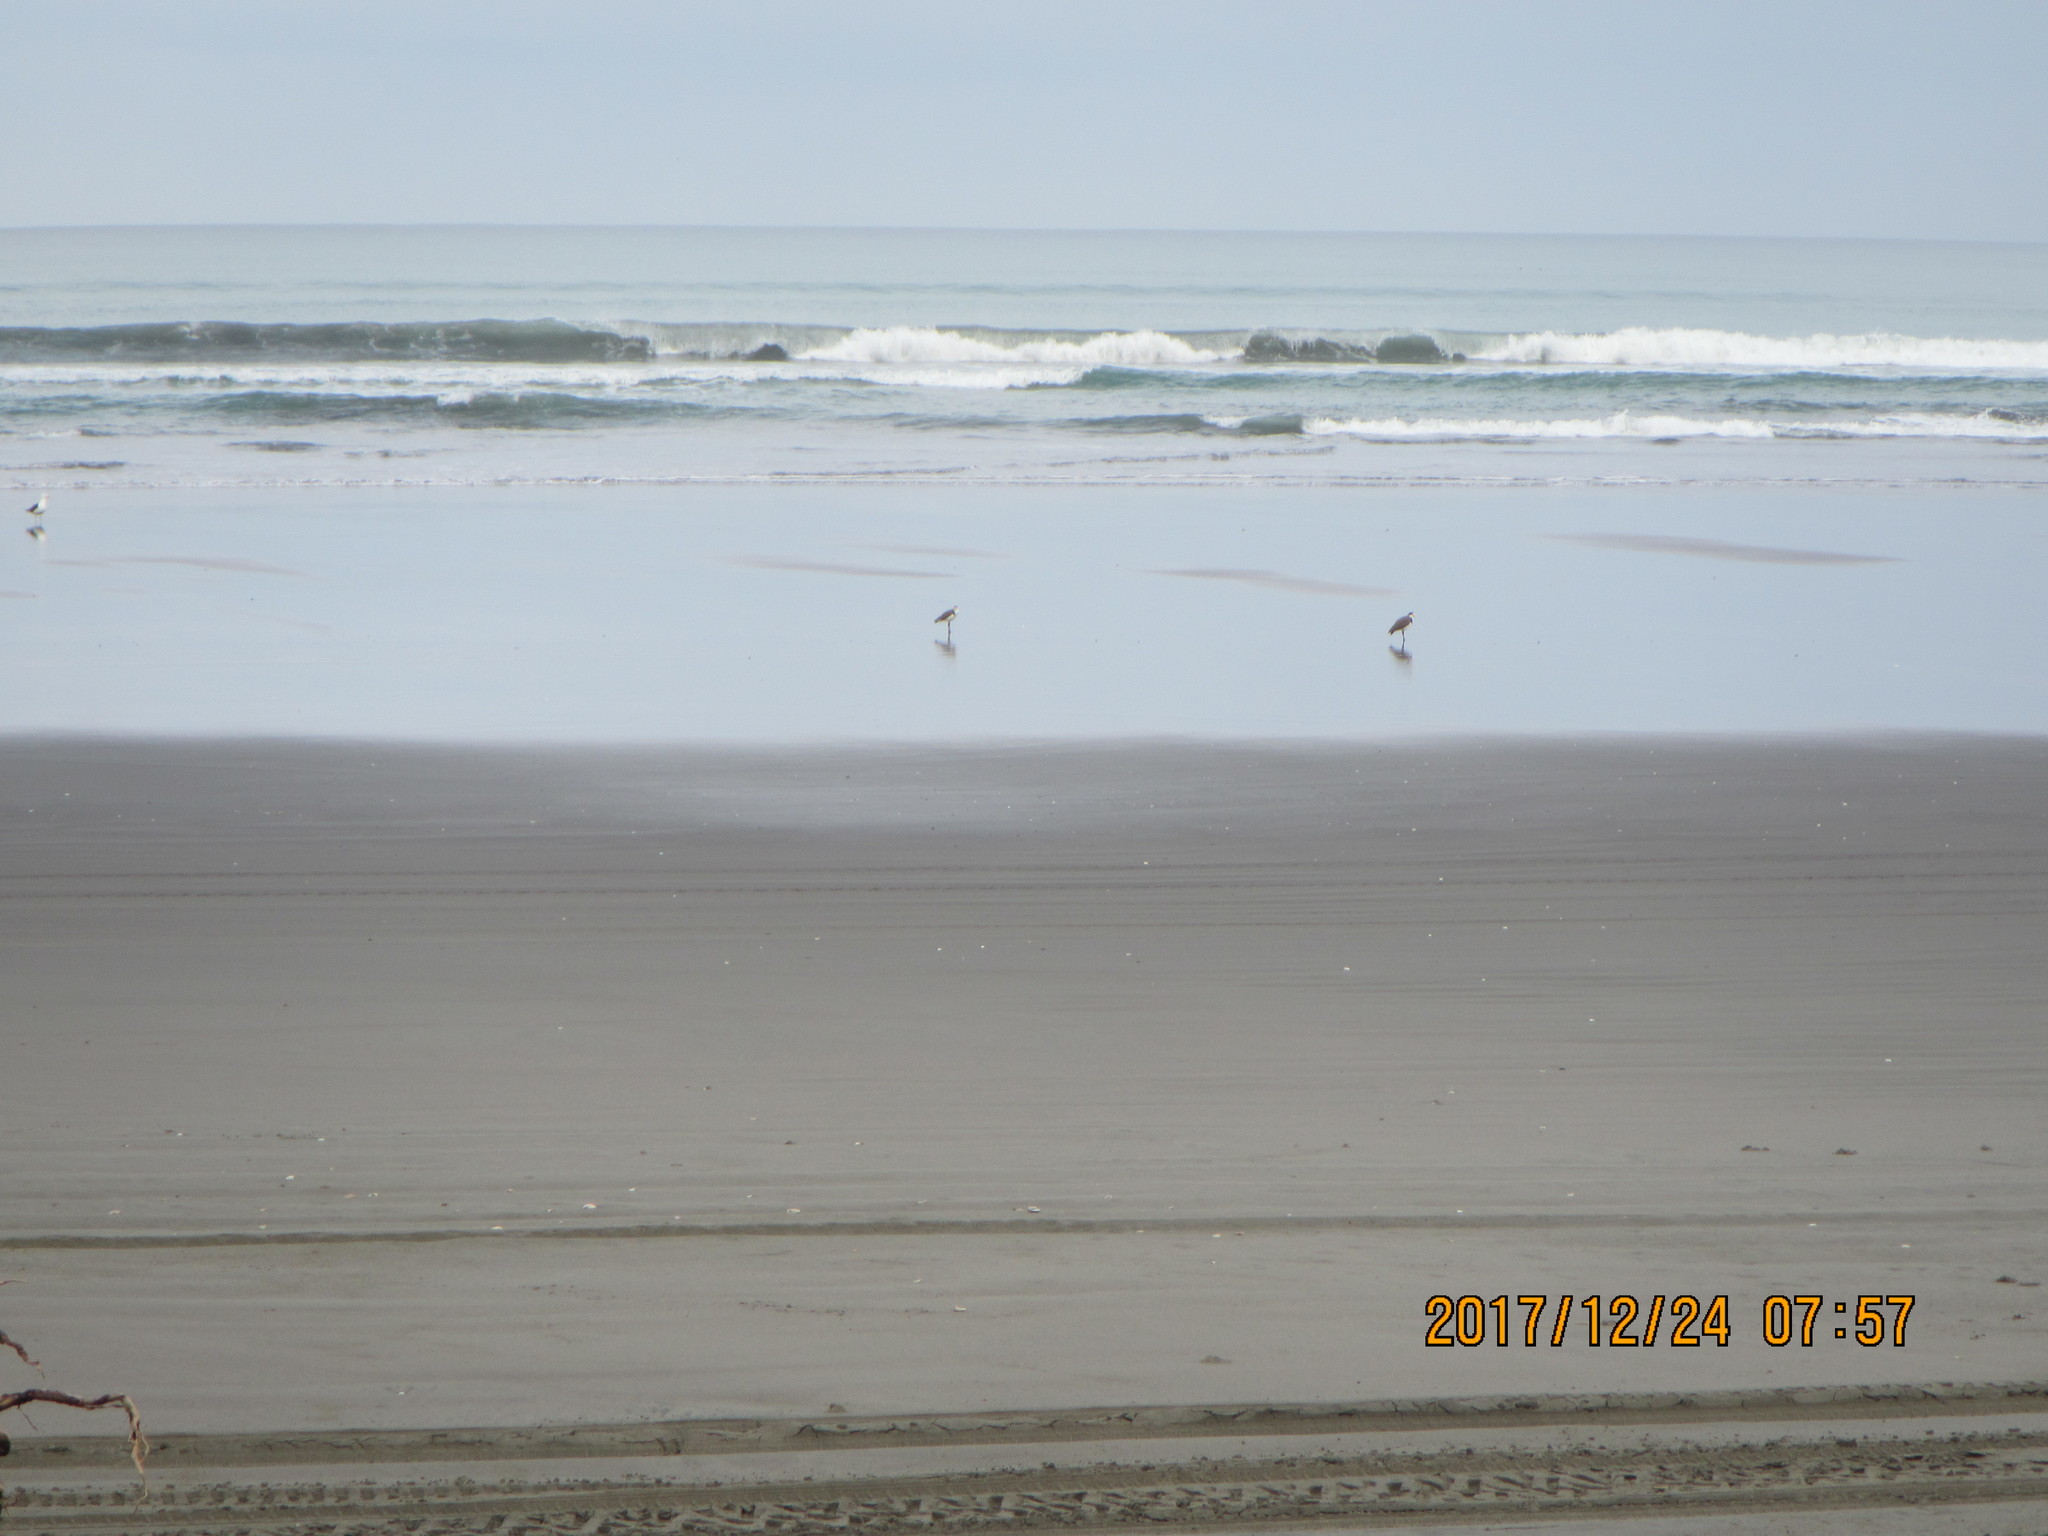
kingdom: Animalia
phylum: Chordata
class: Aves
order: Charadriiformes
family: Charadriidae
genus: Vanellus
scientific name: Vanellus miles
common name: Masked lapwing
